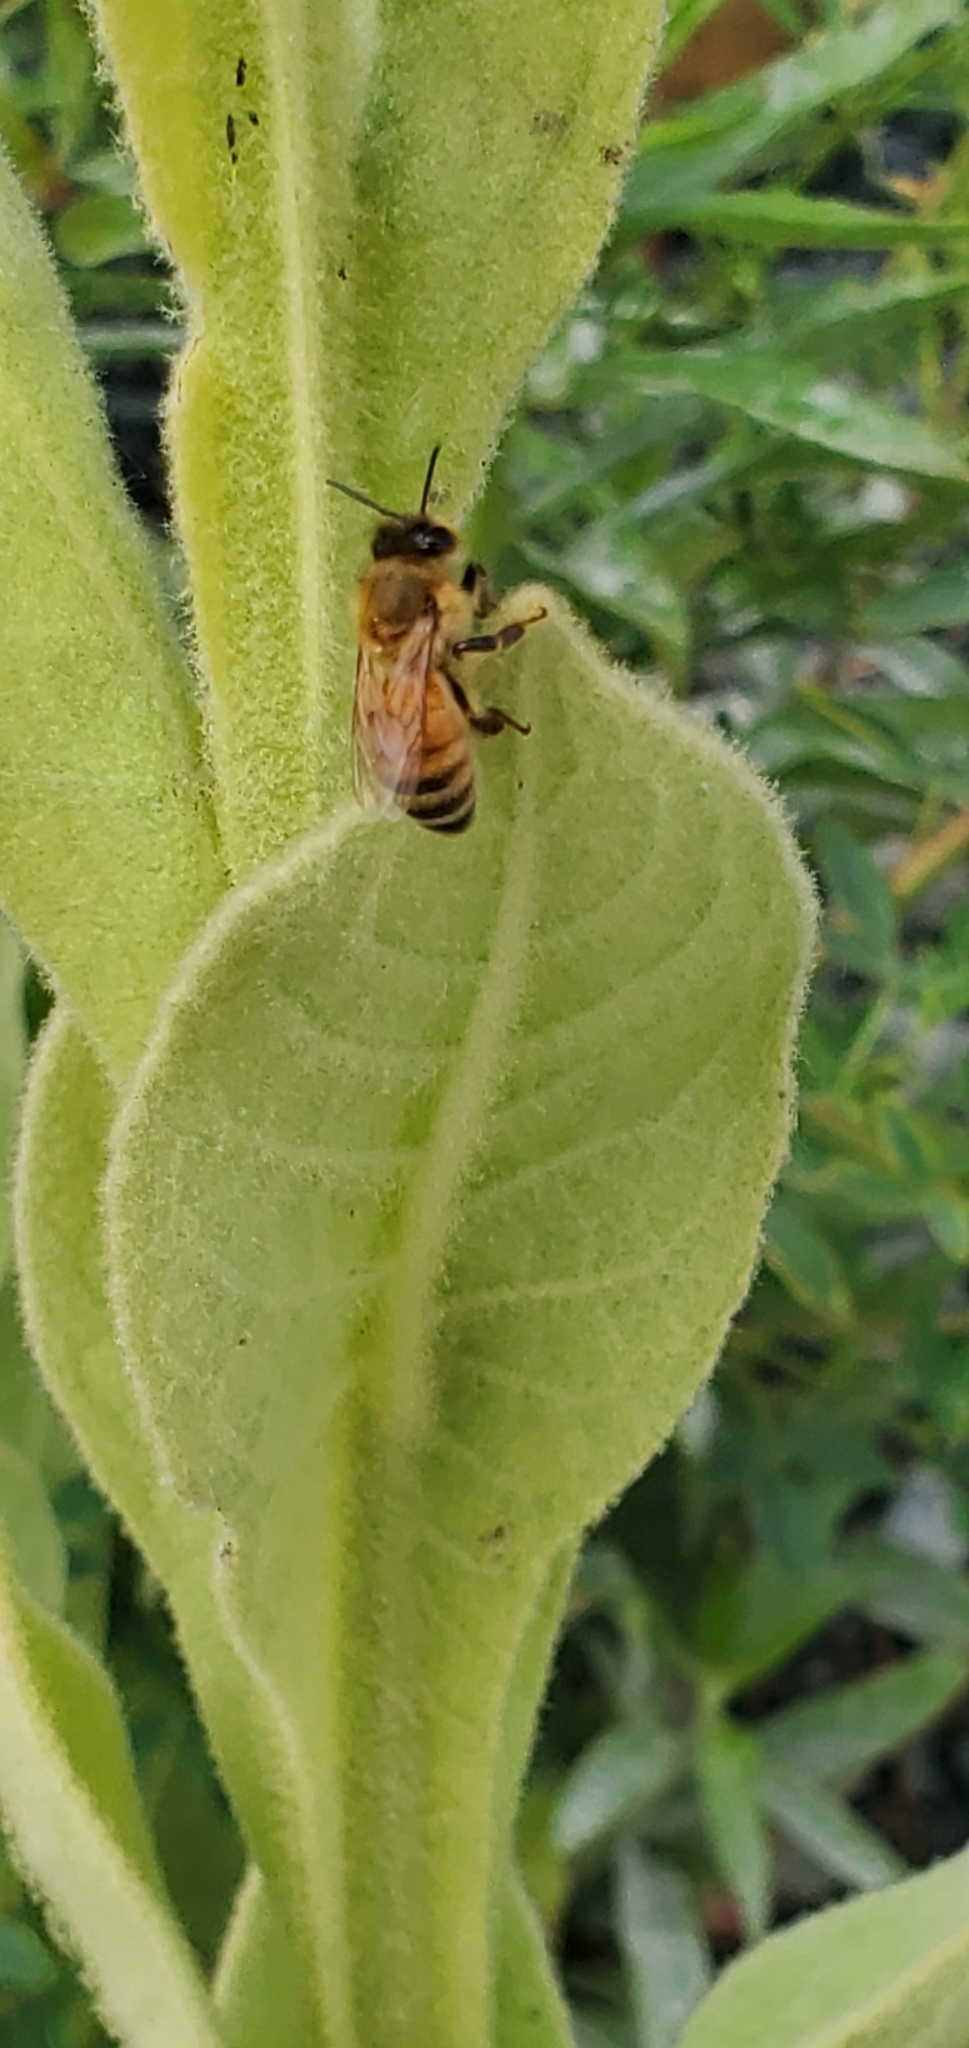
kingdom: Animalia
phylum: Arthropoda
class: Insecta
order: Hymenoptera
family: Apidae
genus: Apis
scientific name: Apis mellifera
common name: Honey bee
